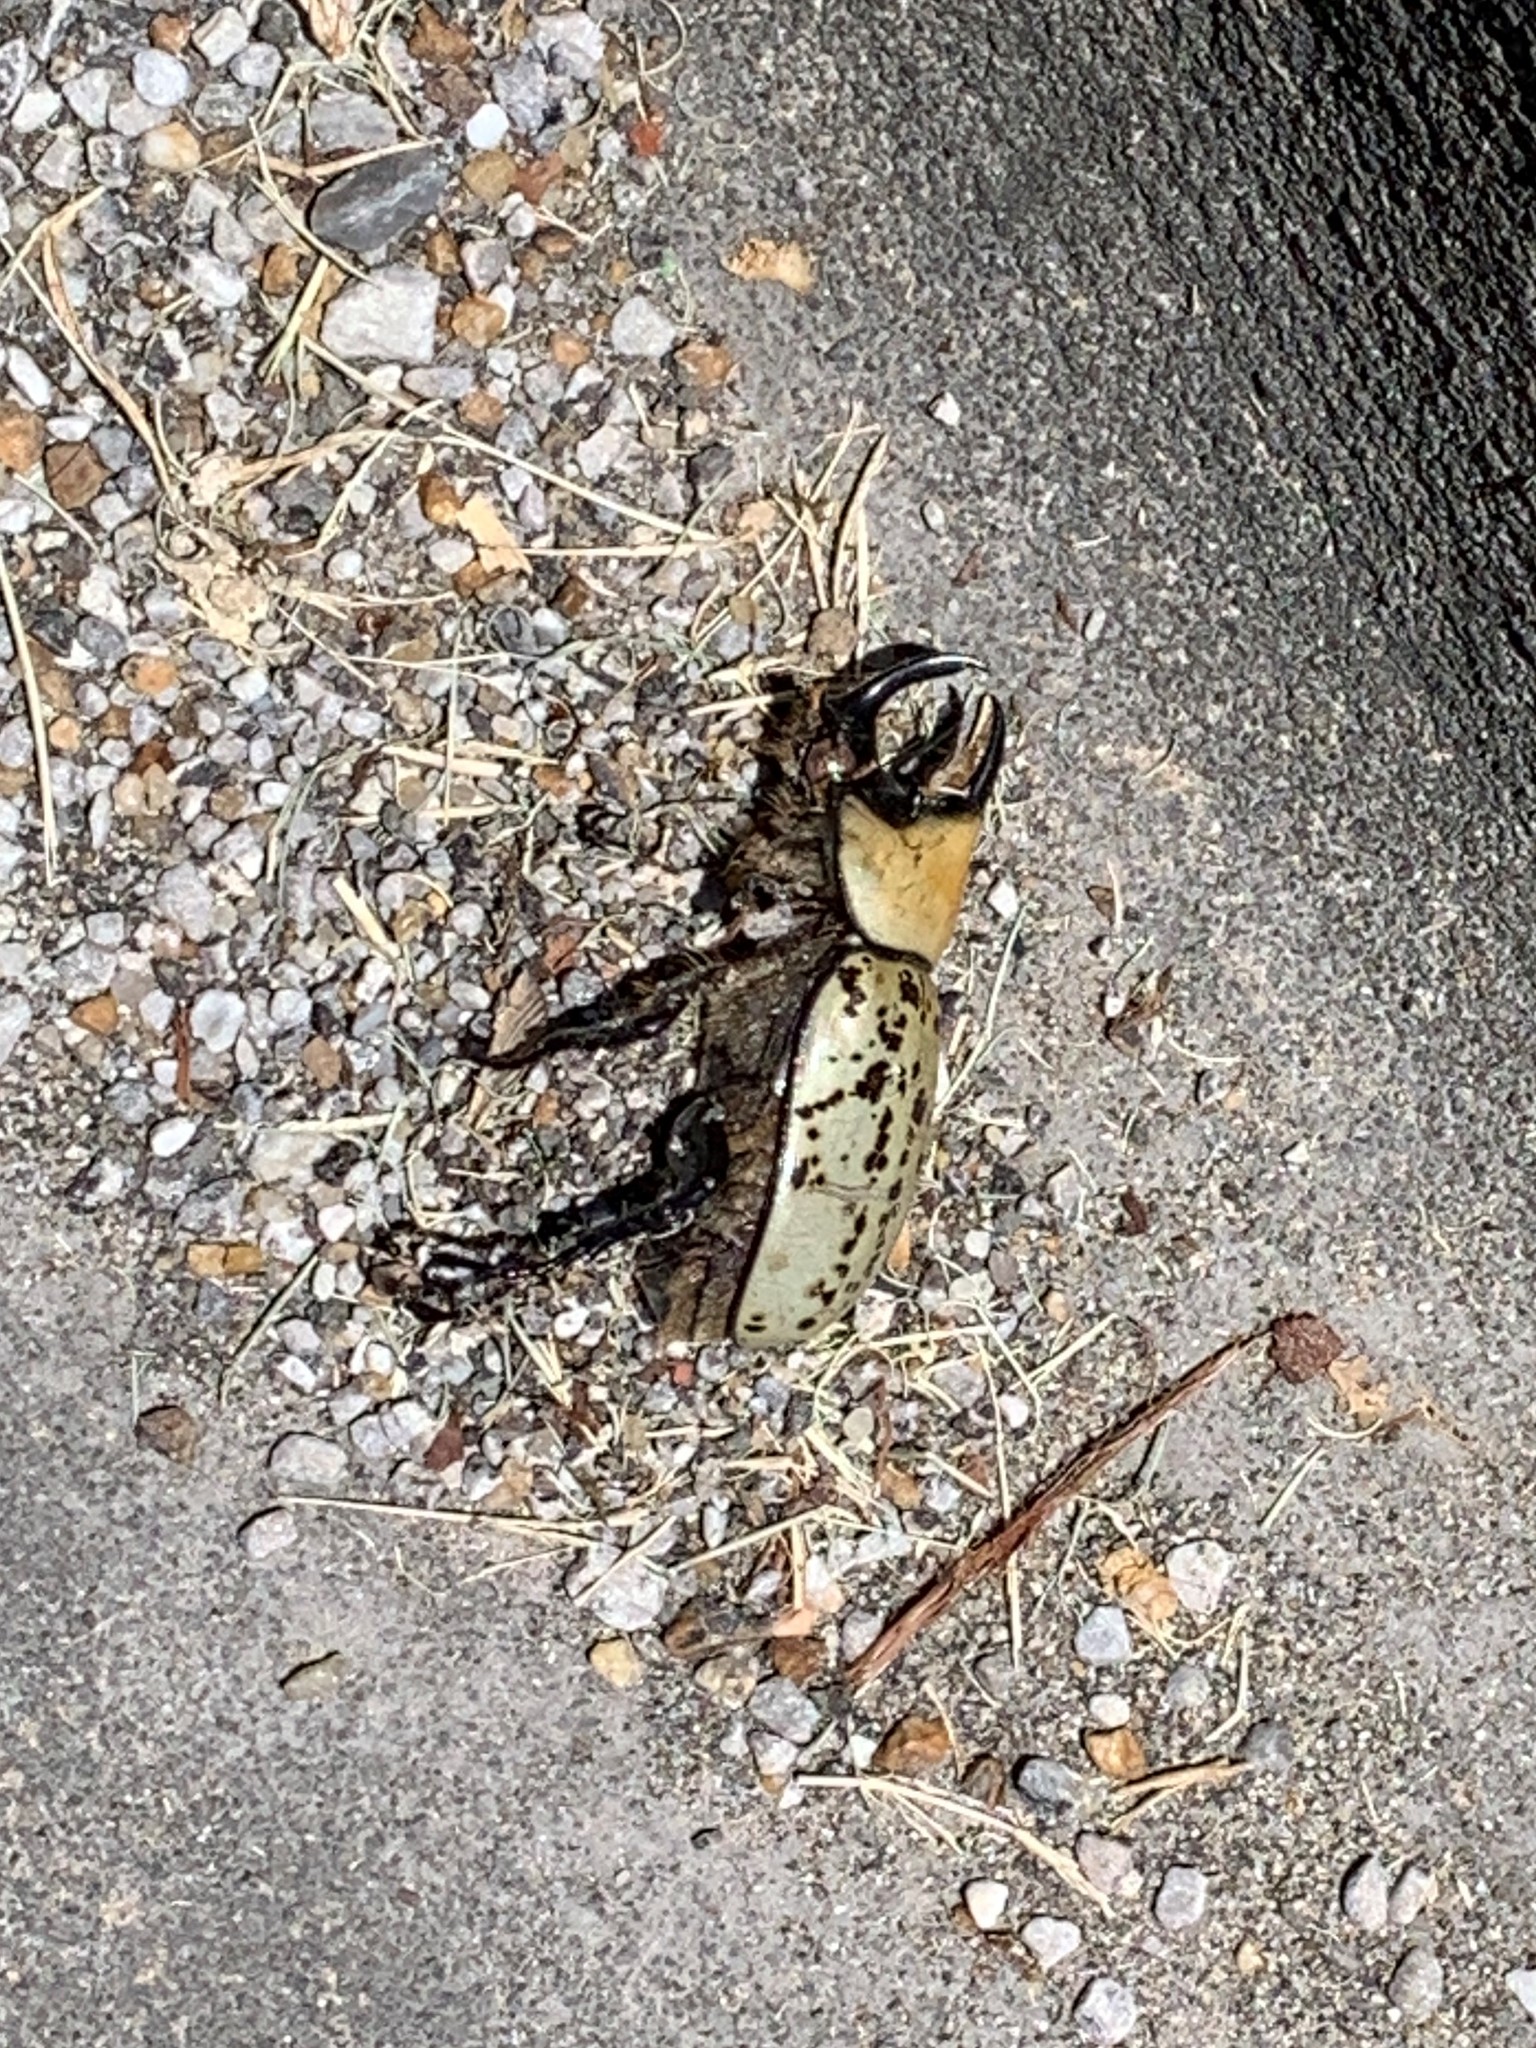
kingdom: Animalia
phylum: Arthropoda
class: Insecta
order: Coleoptera
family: Scarabaeidae
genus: Dynastes
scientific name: Dynastes tityus
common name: Eastern hercules beetle
